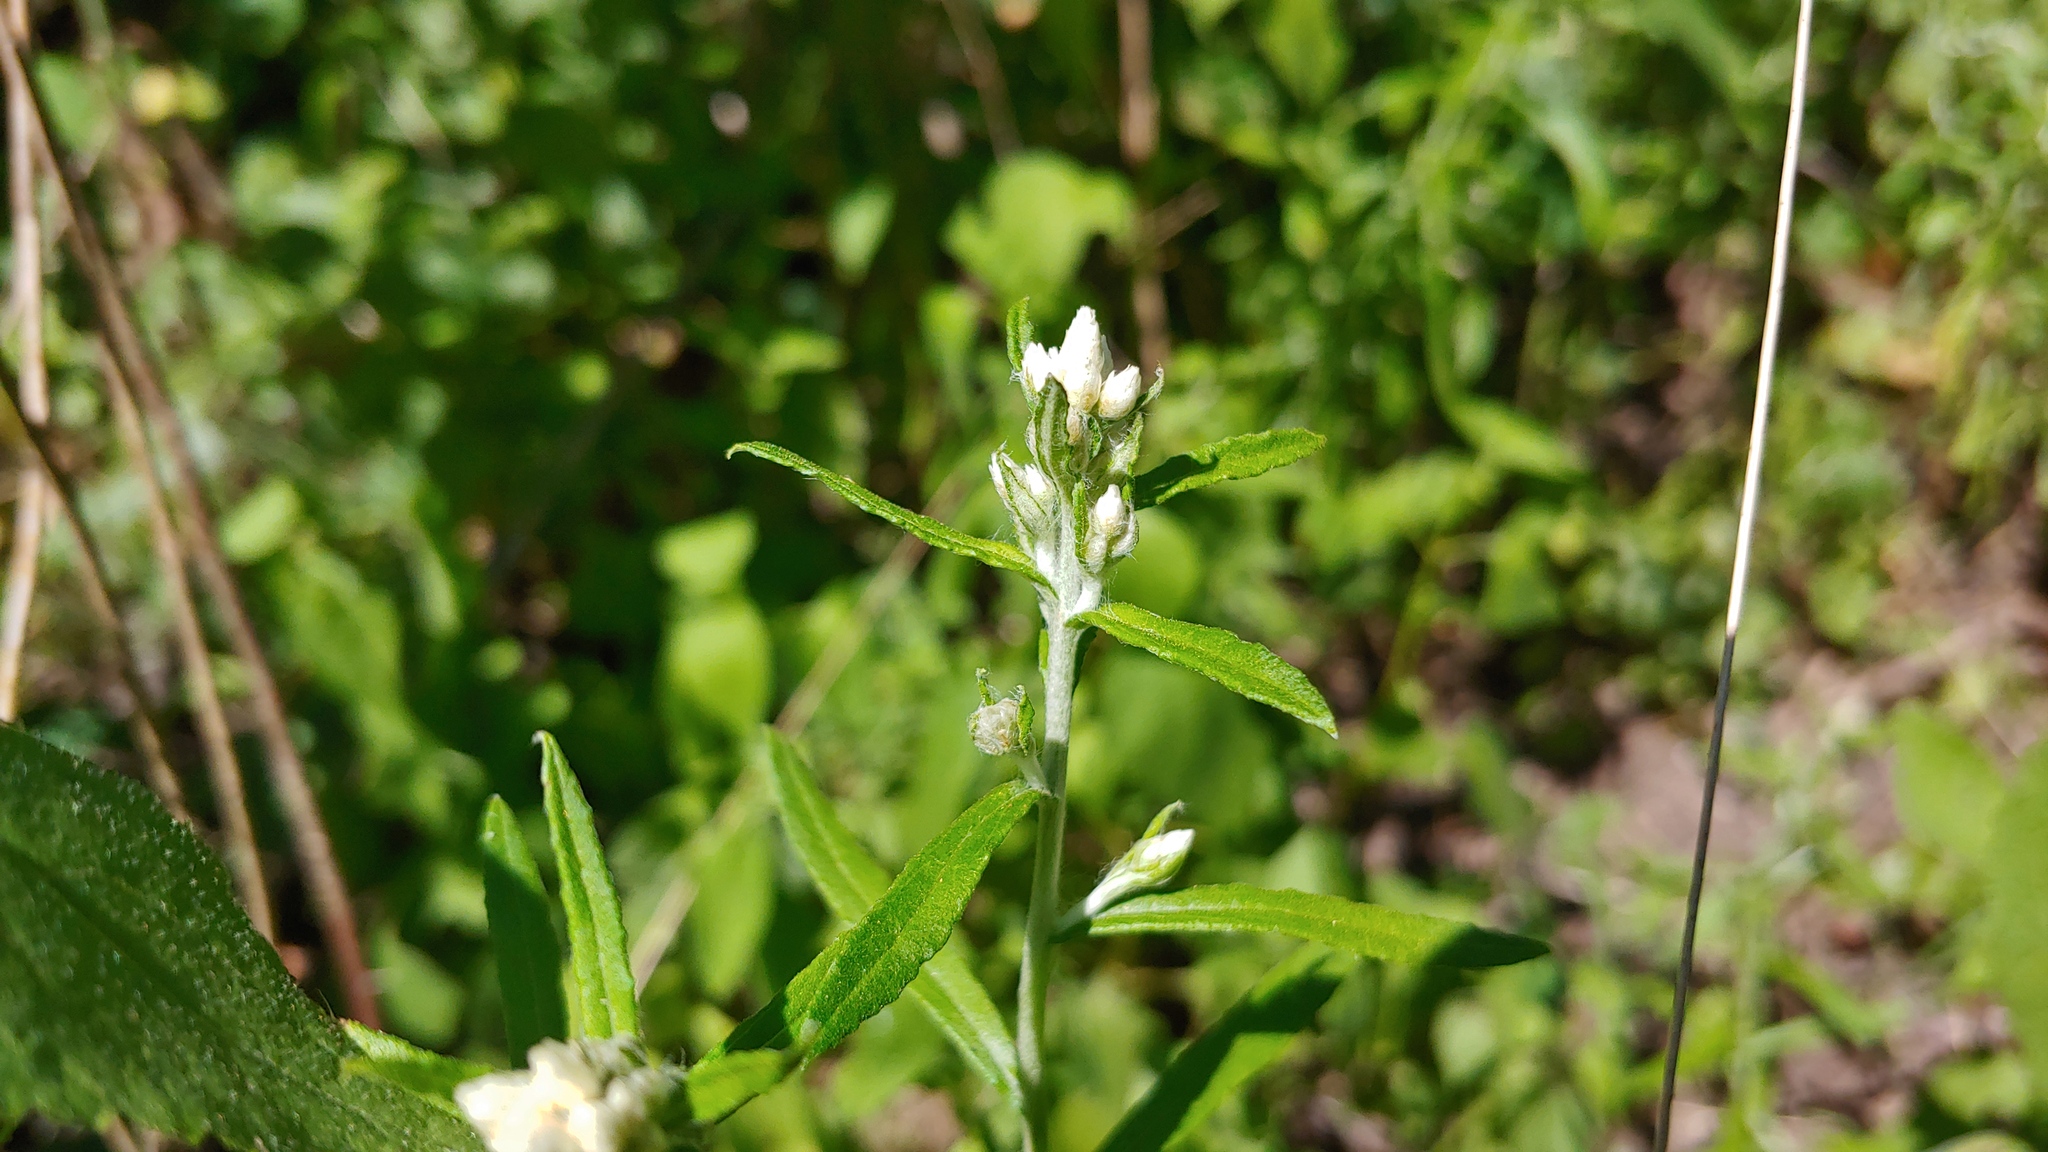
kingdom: Plantae
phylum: Tracheophyta
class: Magnoliopsida
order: Asterales
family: Asteraceae
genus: Pseudognaphalium
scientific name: Pseudognaphalium obtusifolium
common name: Eastern rabbit-tobacco
